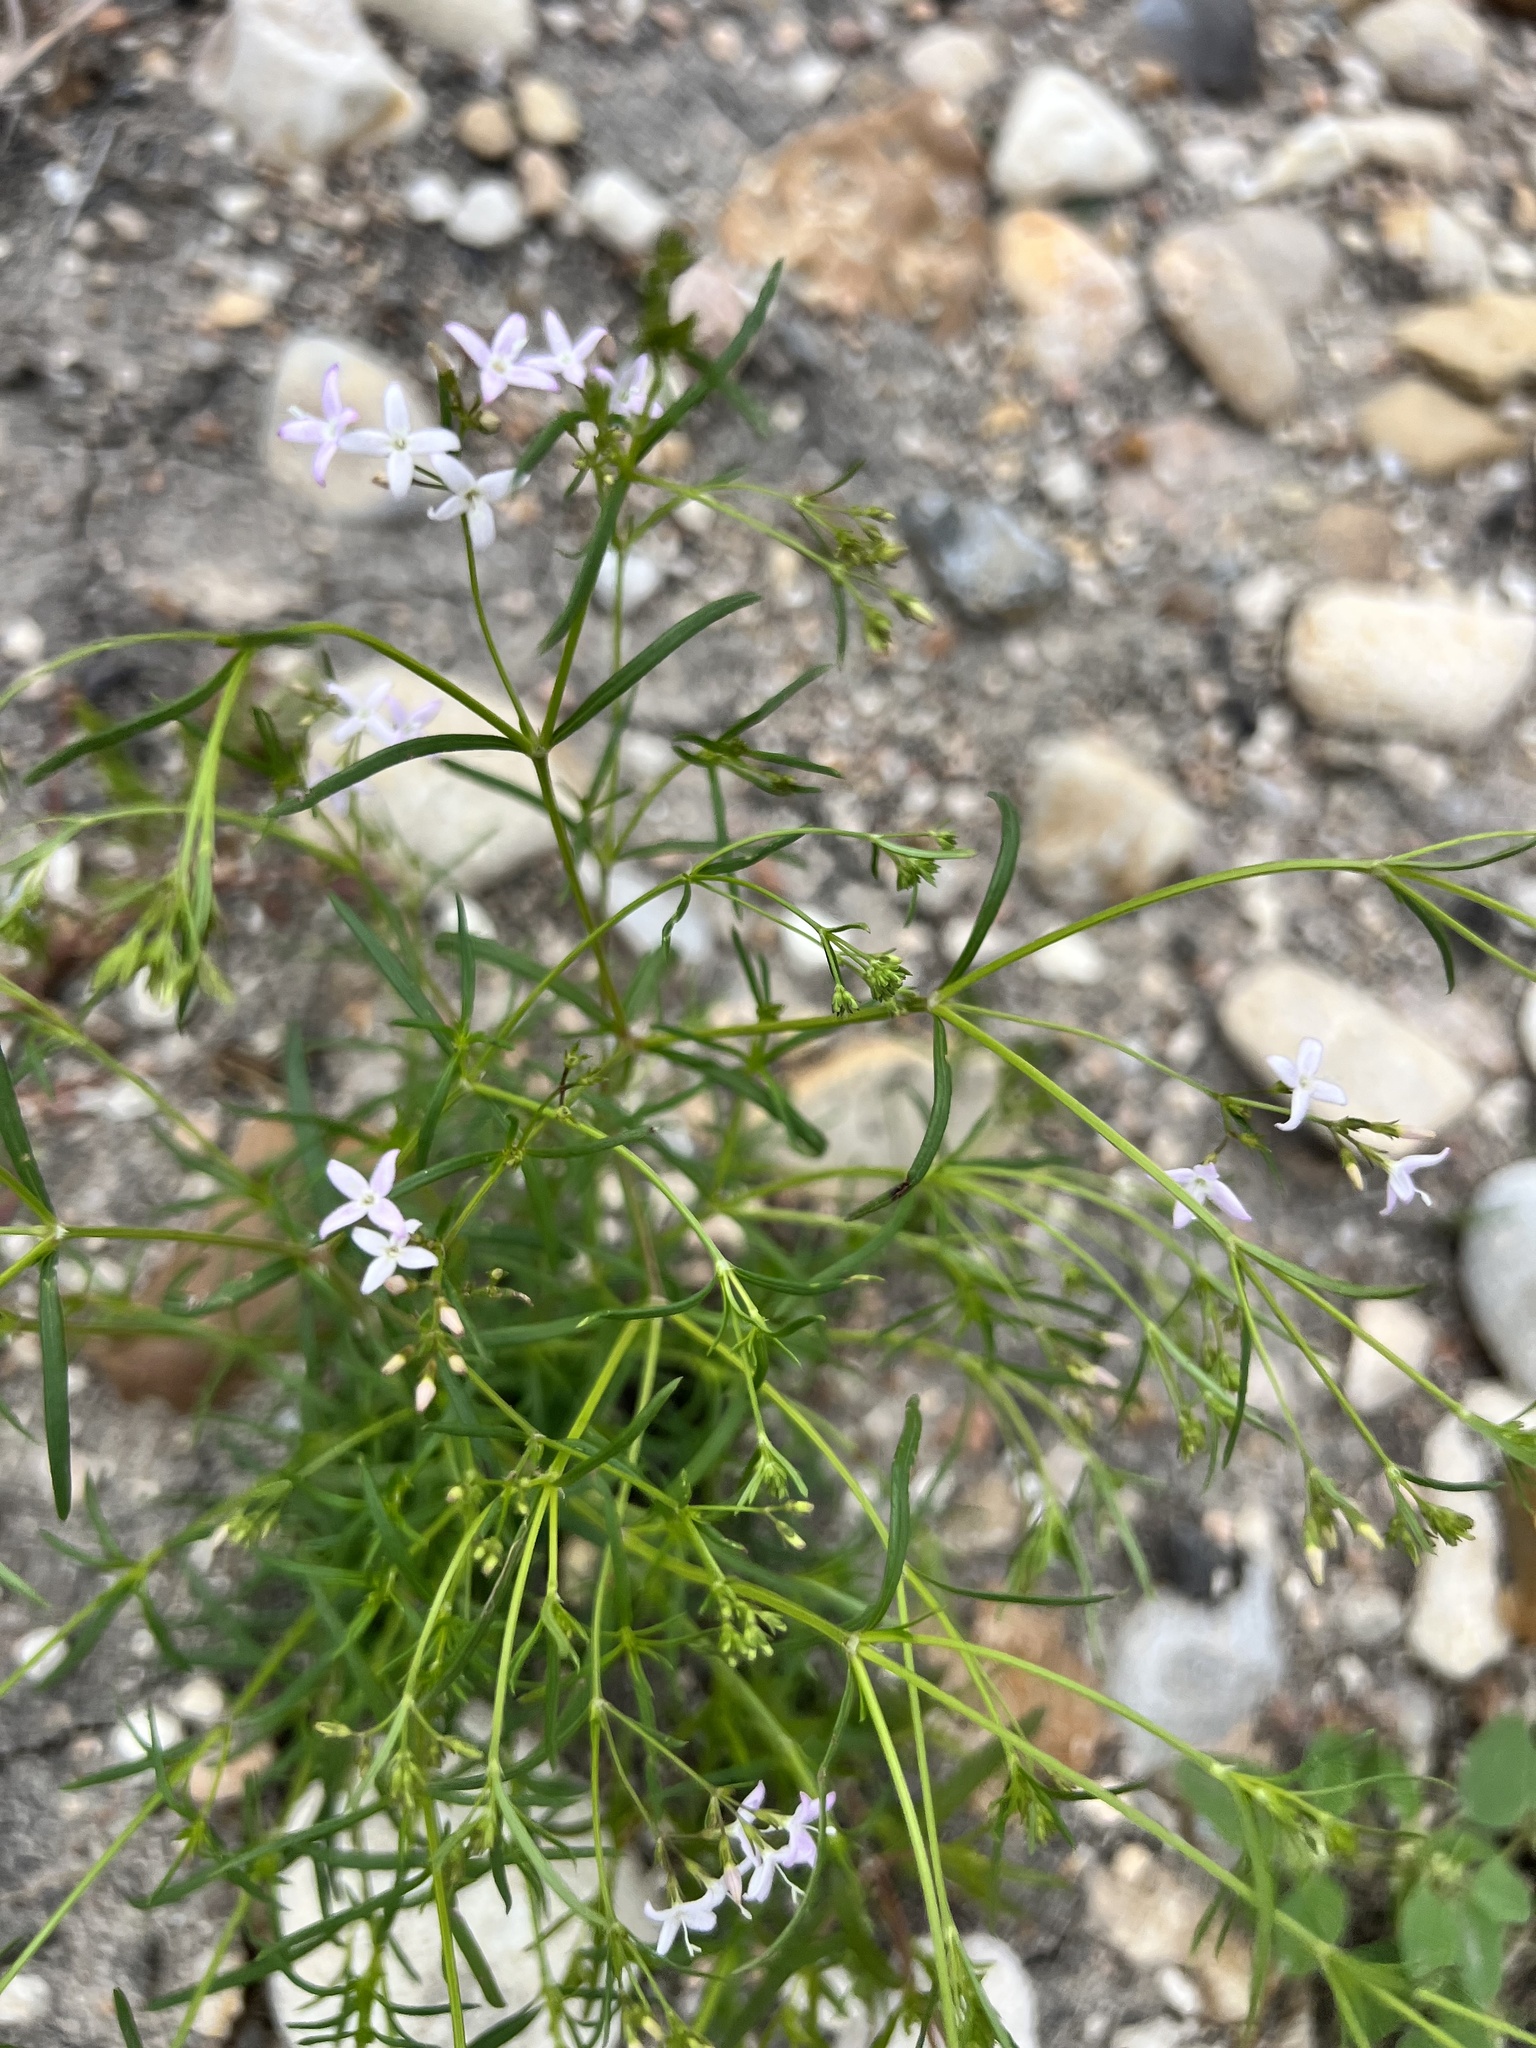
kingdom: Plantae
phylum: Tracheophyta
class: Magnoliopsida
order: Gentianales
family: Rubiaceae
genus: Stenaria
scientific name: Stenaria nigricans
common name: Diamondflowers
